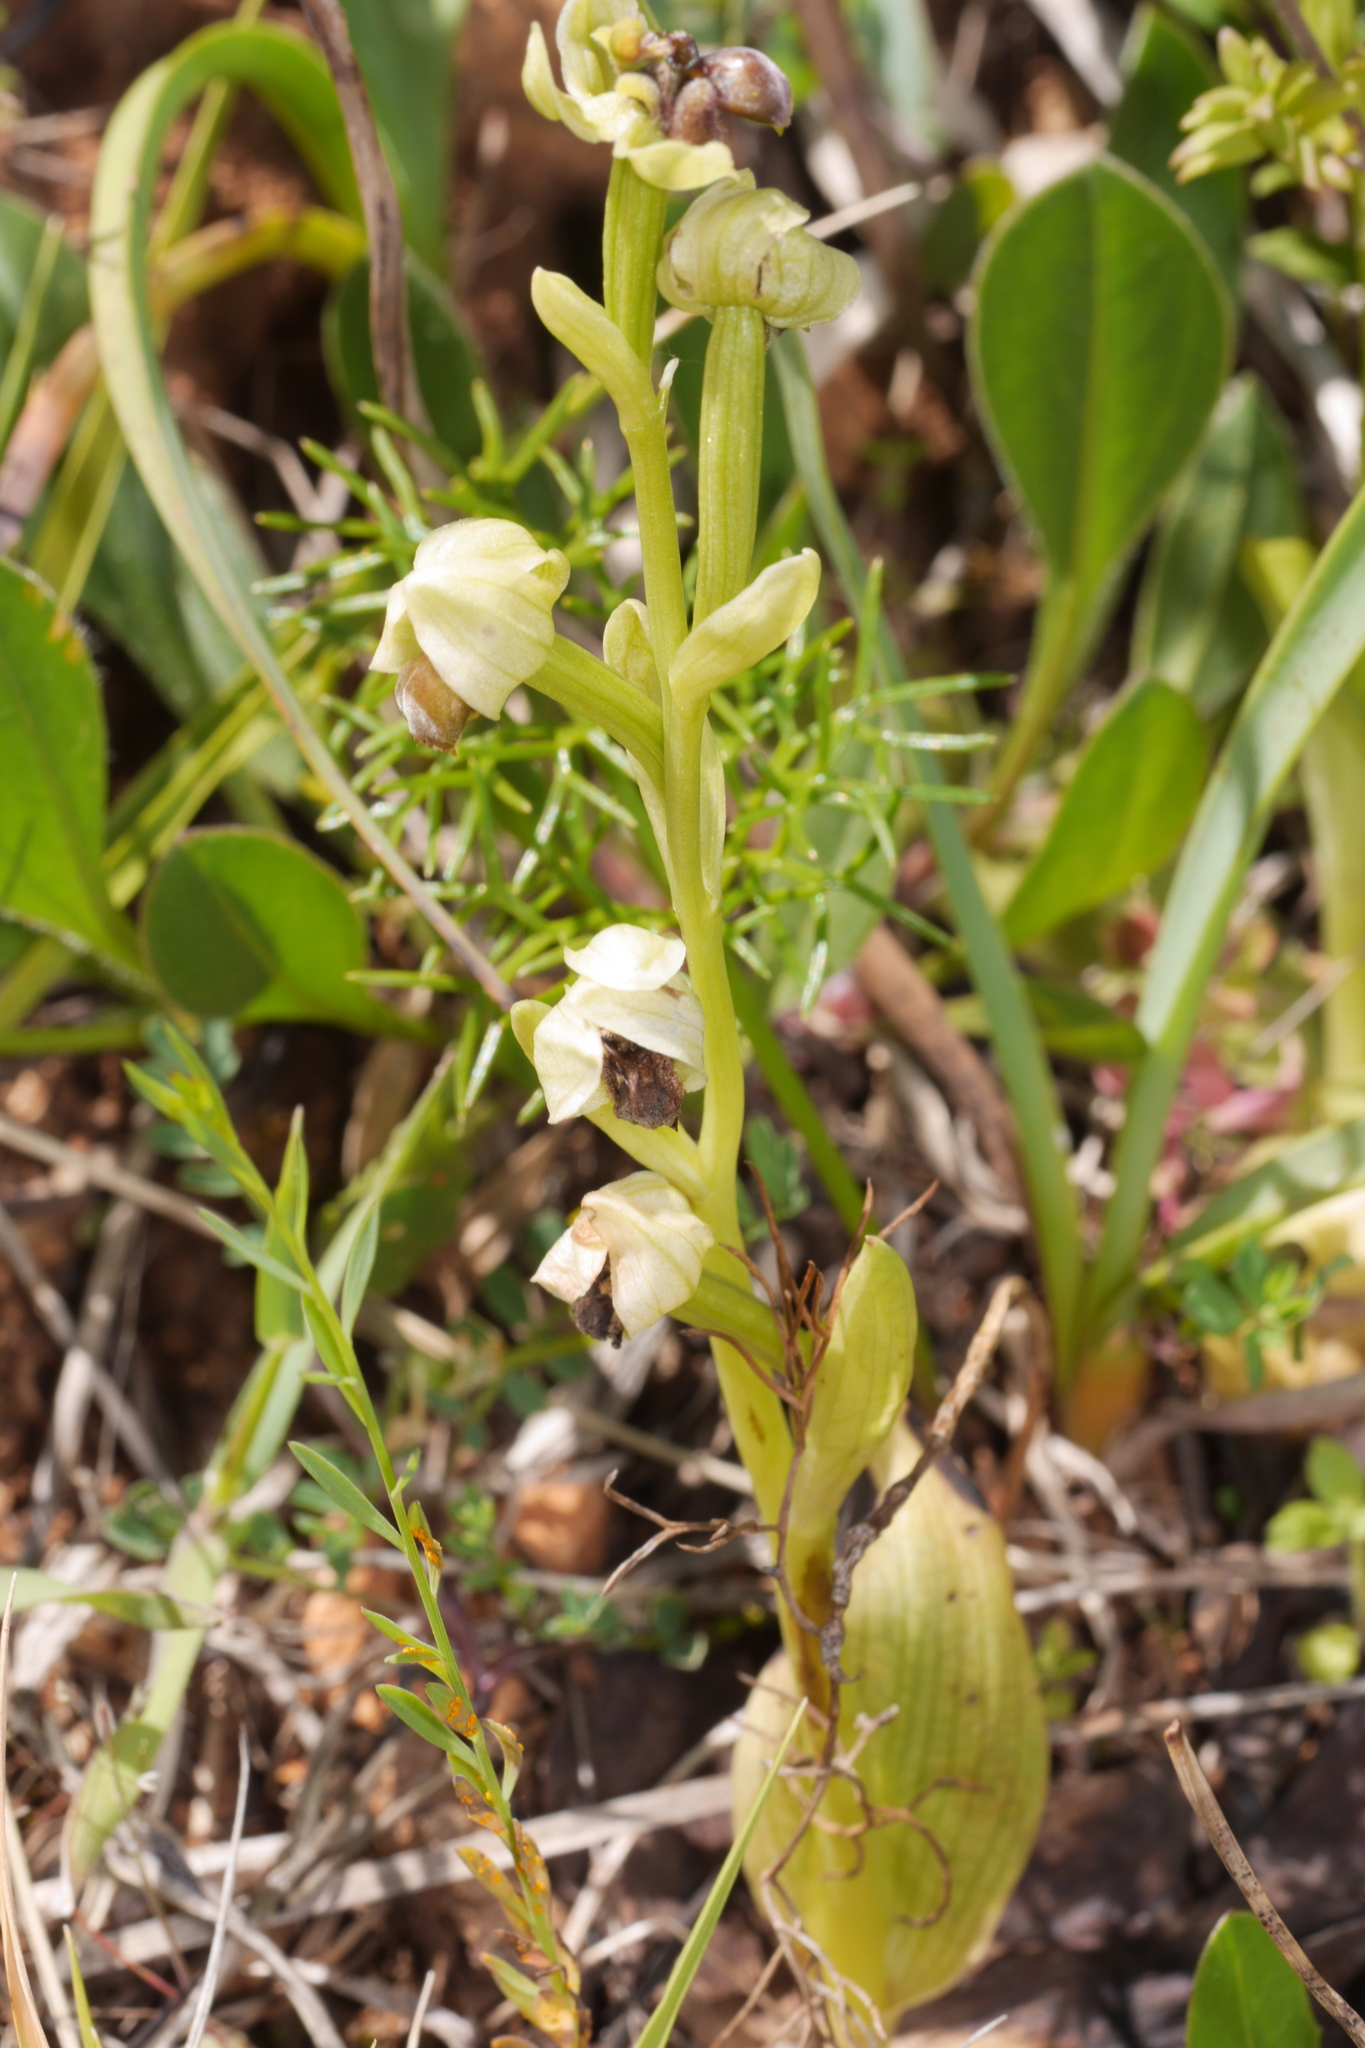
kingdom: Plantae
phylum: Tracheophyta
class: Liliopsida
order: Asparagales
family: Orchidaceae
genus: Ophrys
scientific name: Ophrys bombyliflora
